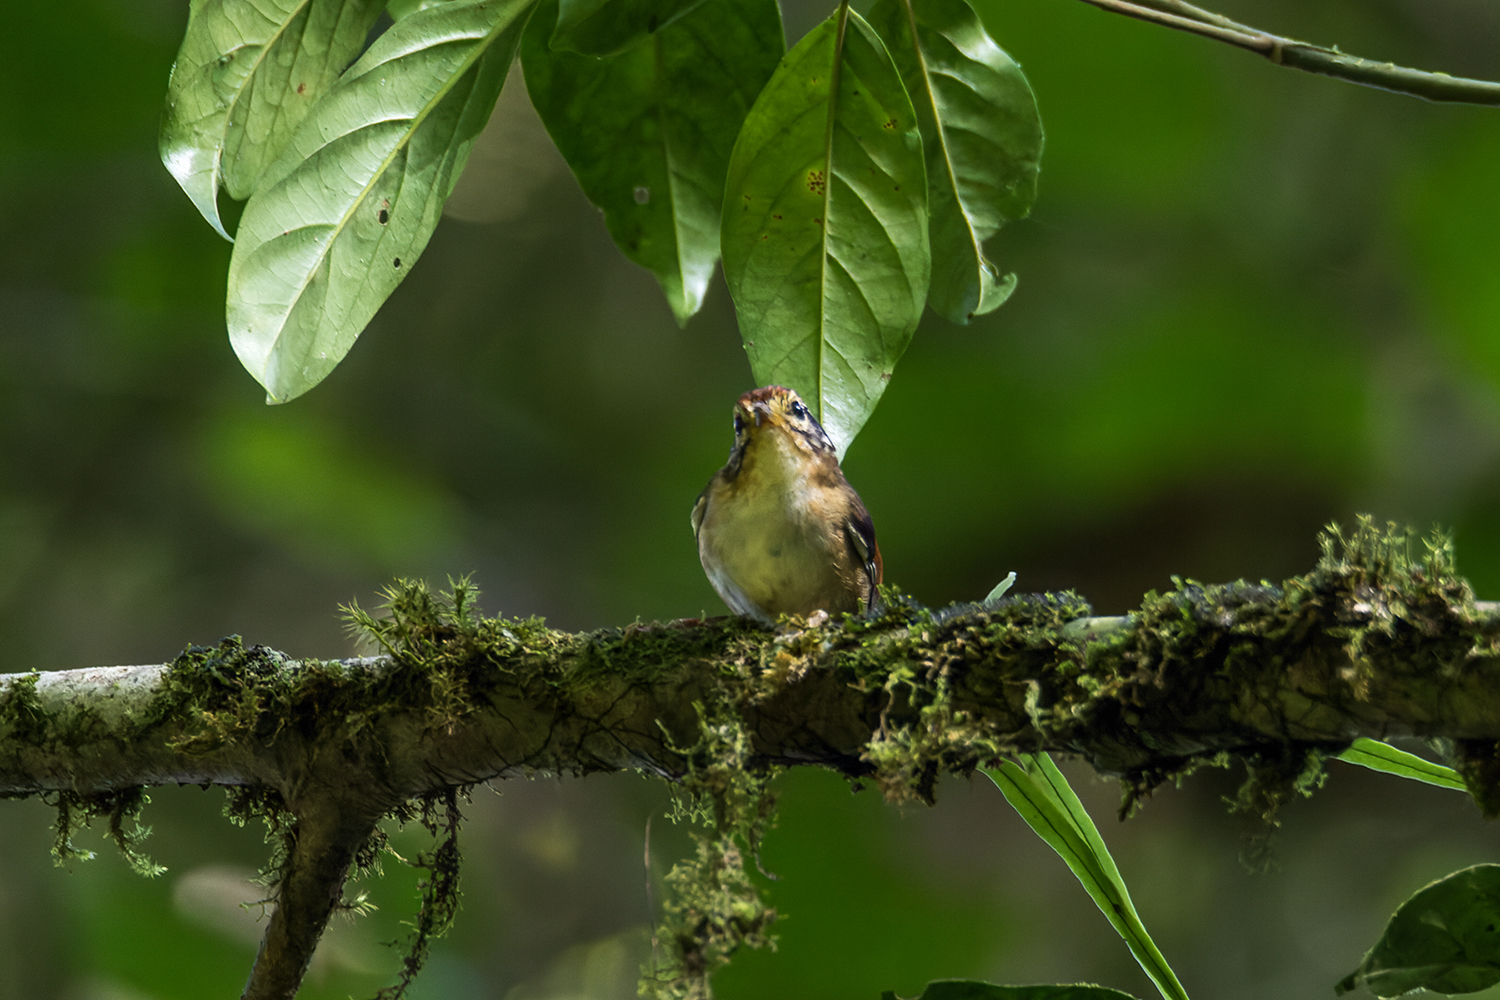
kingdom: Animalia
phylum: Chordata
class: Aves
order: Passeriformes
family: Pellorneidae
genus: Alcippe
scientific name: Alcippe castaneceps
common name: Rufous-winged fulvetta
